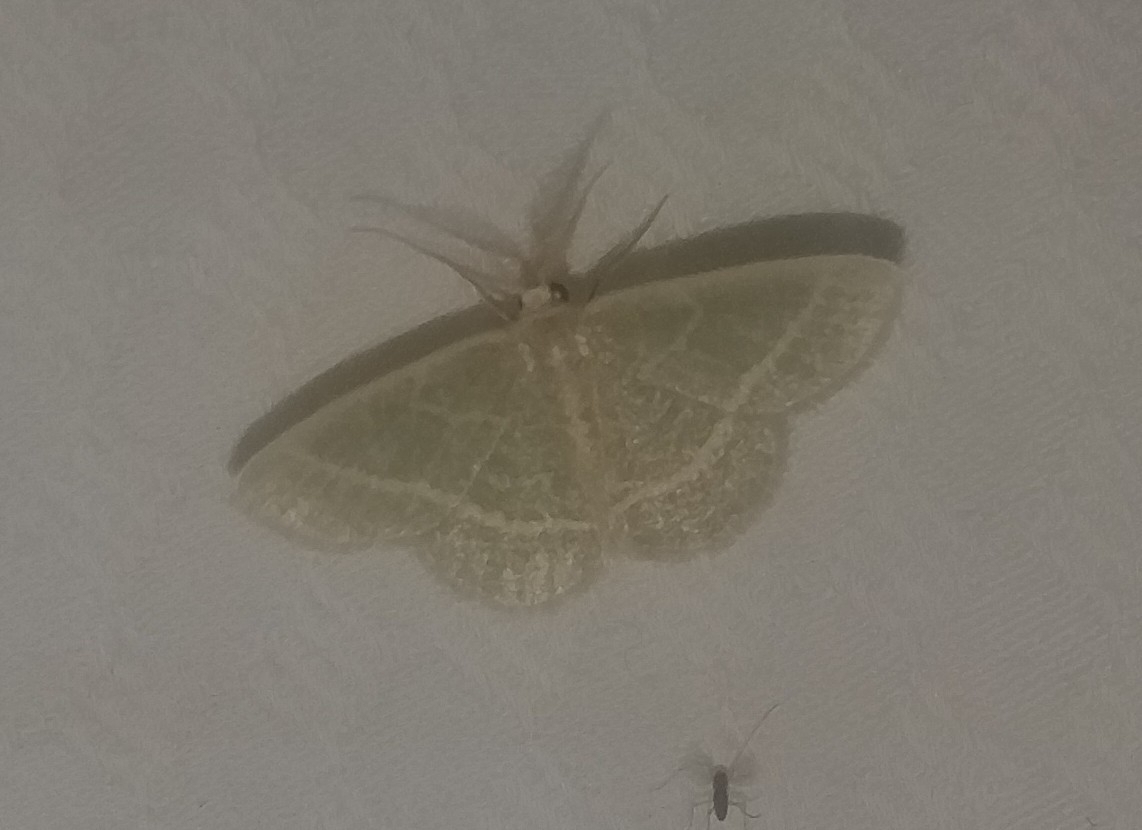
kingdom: Animalia
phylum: Arthropoda
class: Insecta
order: Lepidoptera
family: Geometridae
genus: Chlorochlamys
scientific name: Chlorochlamys chloroleucaria
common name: Blackberry looper
